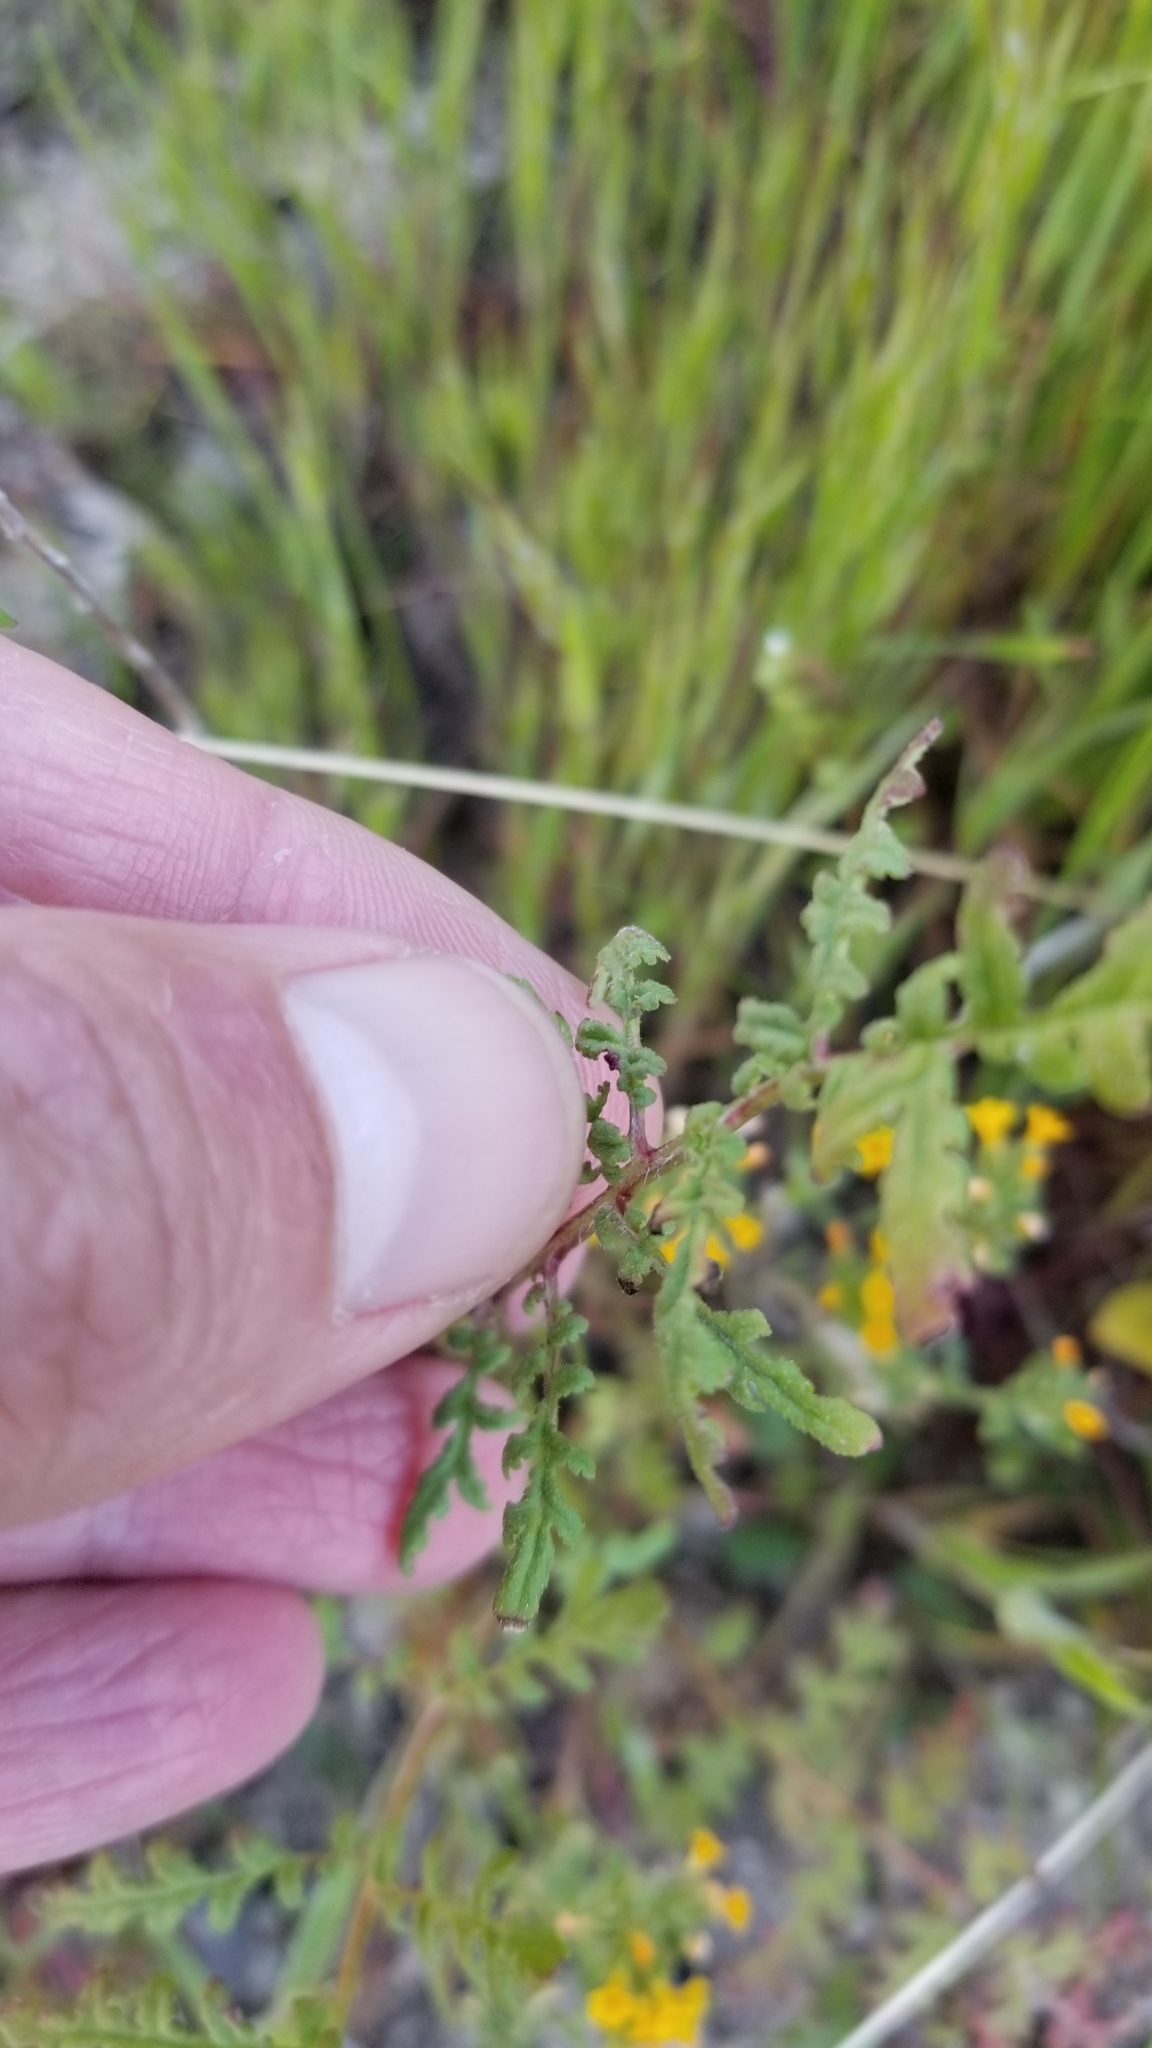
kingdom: Plantae
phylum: Tracheophyta
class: Magnoliopsida
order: Boraginales
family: Hydrophyllaceae
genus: Phacelia
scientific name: Phacelia tanacetifolia
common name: Phacelia
